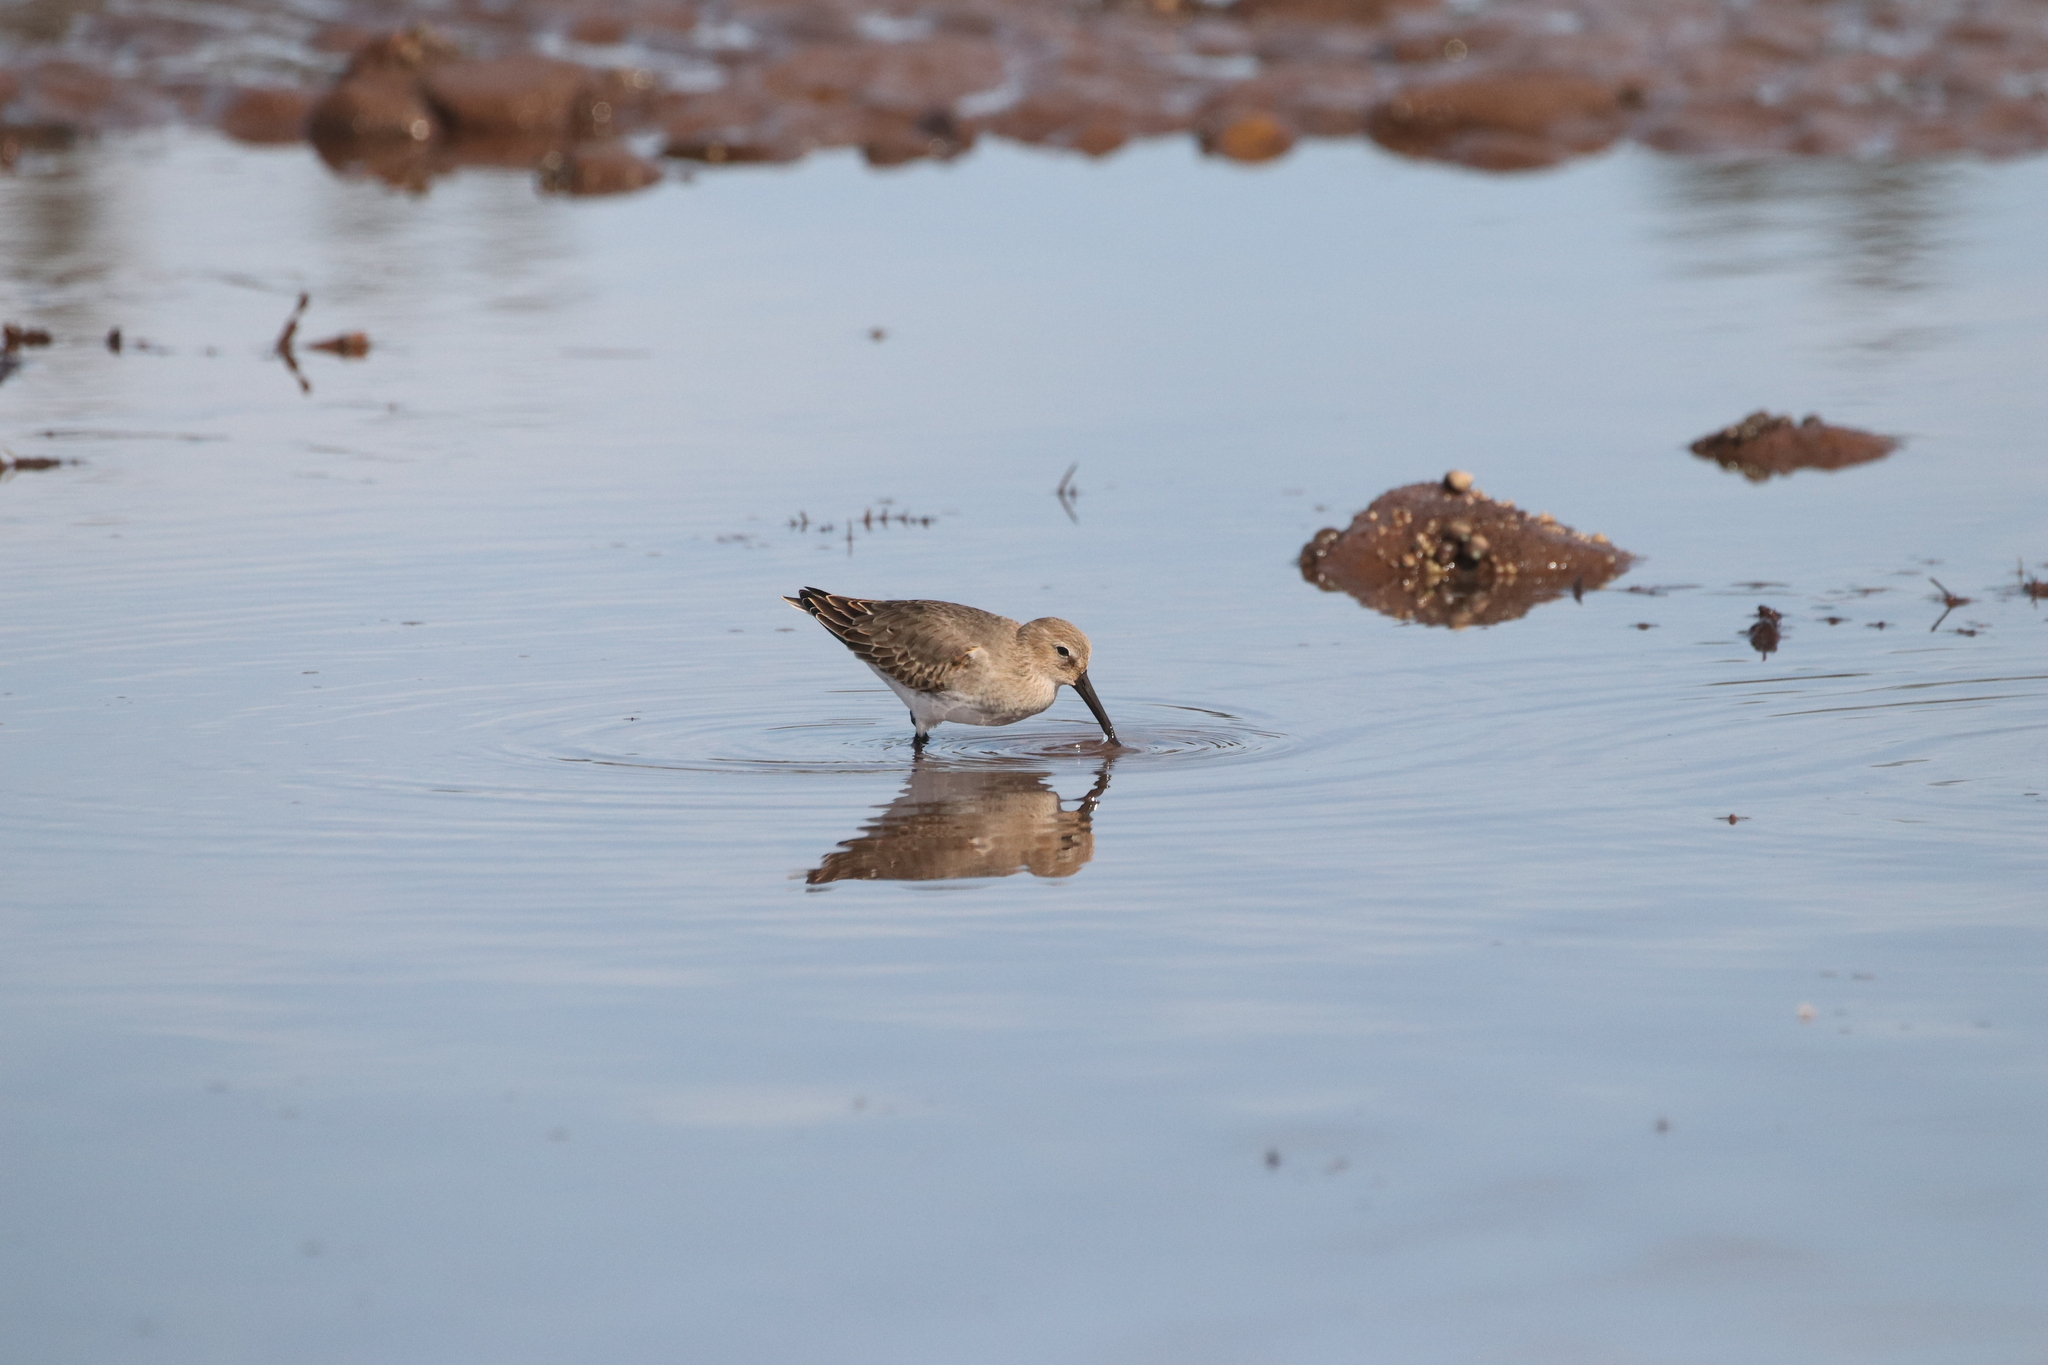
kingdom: Animalia
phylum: Chordata
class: Aves
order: Charadriiformes
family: Scolopacidae
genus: Calidris
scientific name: Calidris alpina
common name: Dunlin
